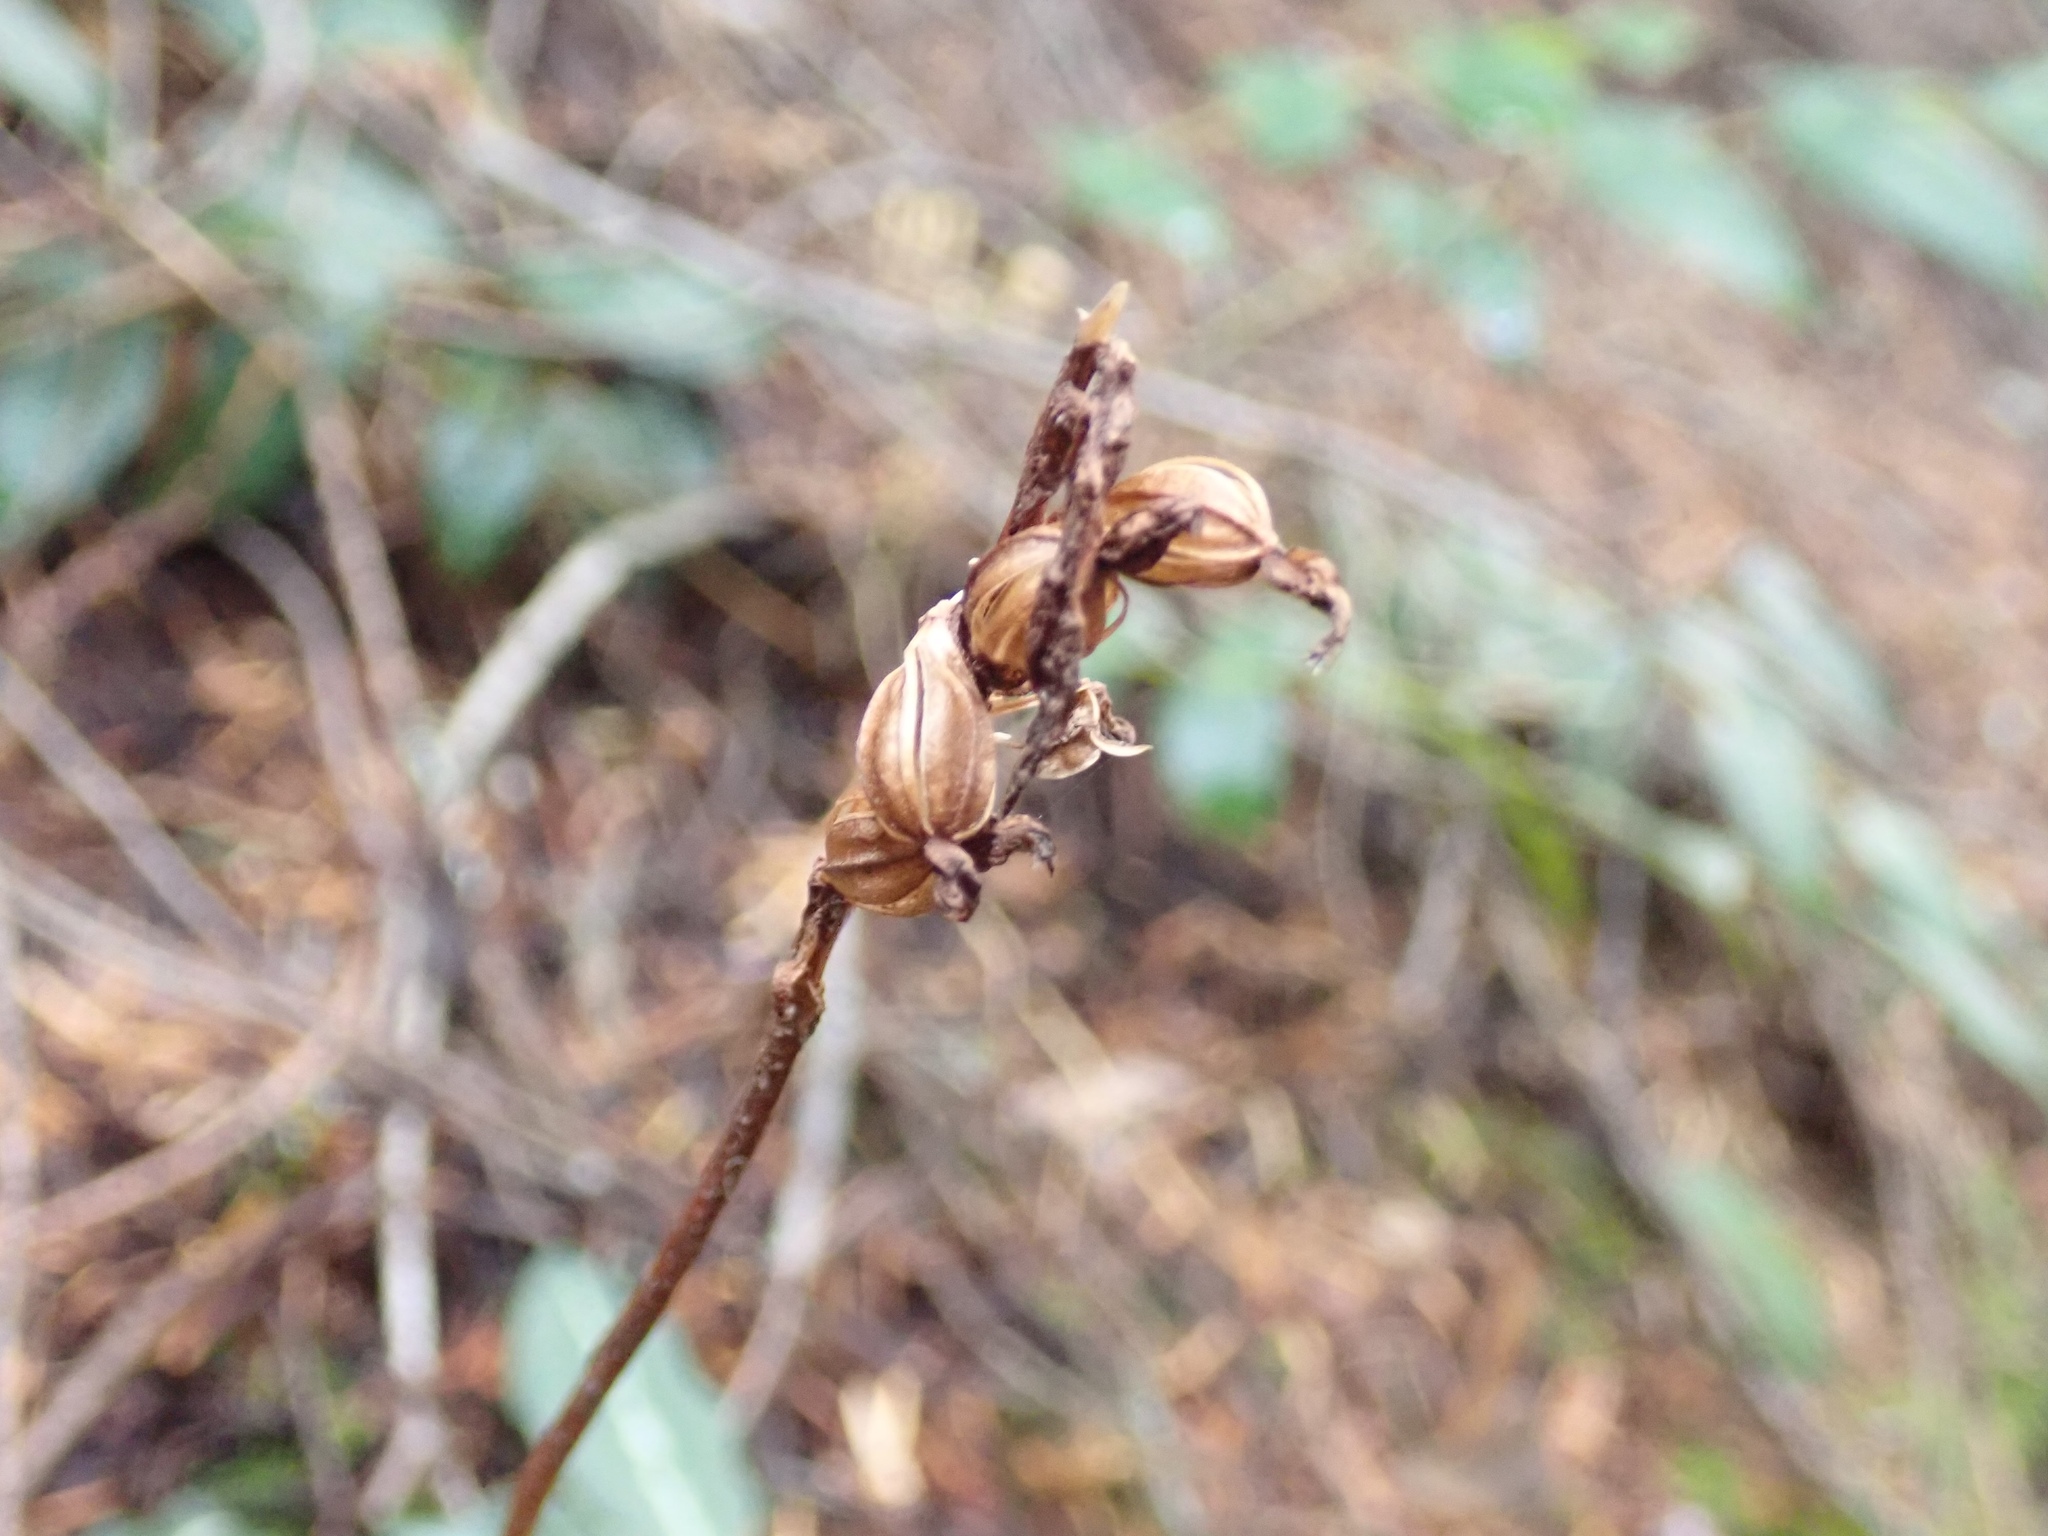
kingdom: Plantae
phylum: Tracheophyta
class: Liliopsida
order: Asparagales
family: Orchidaceae
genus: Goodyera
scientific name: Goodyera oblongifolia
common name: Giant rattlesnake-plantain
